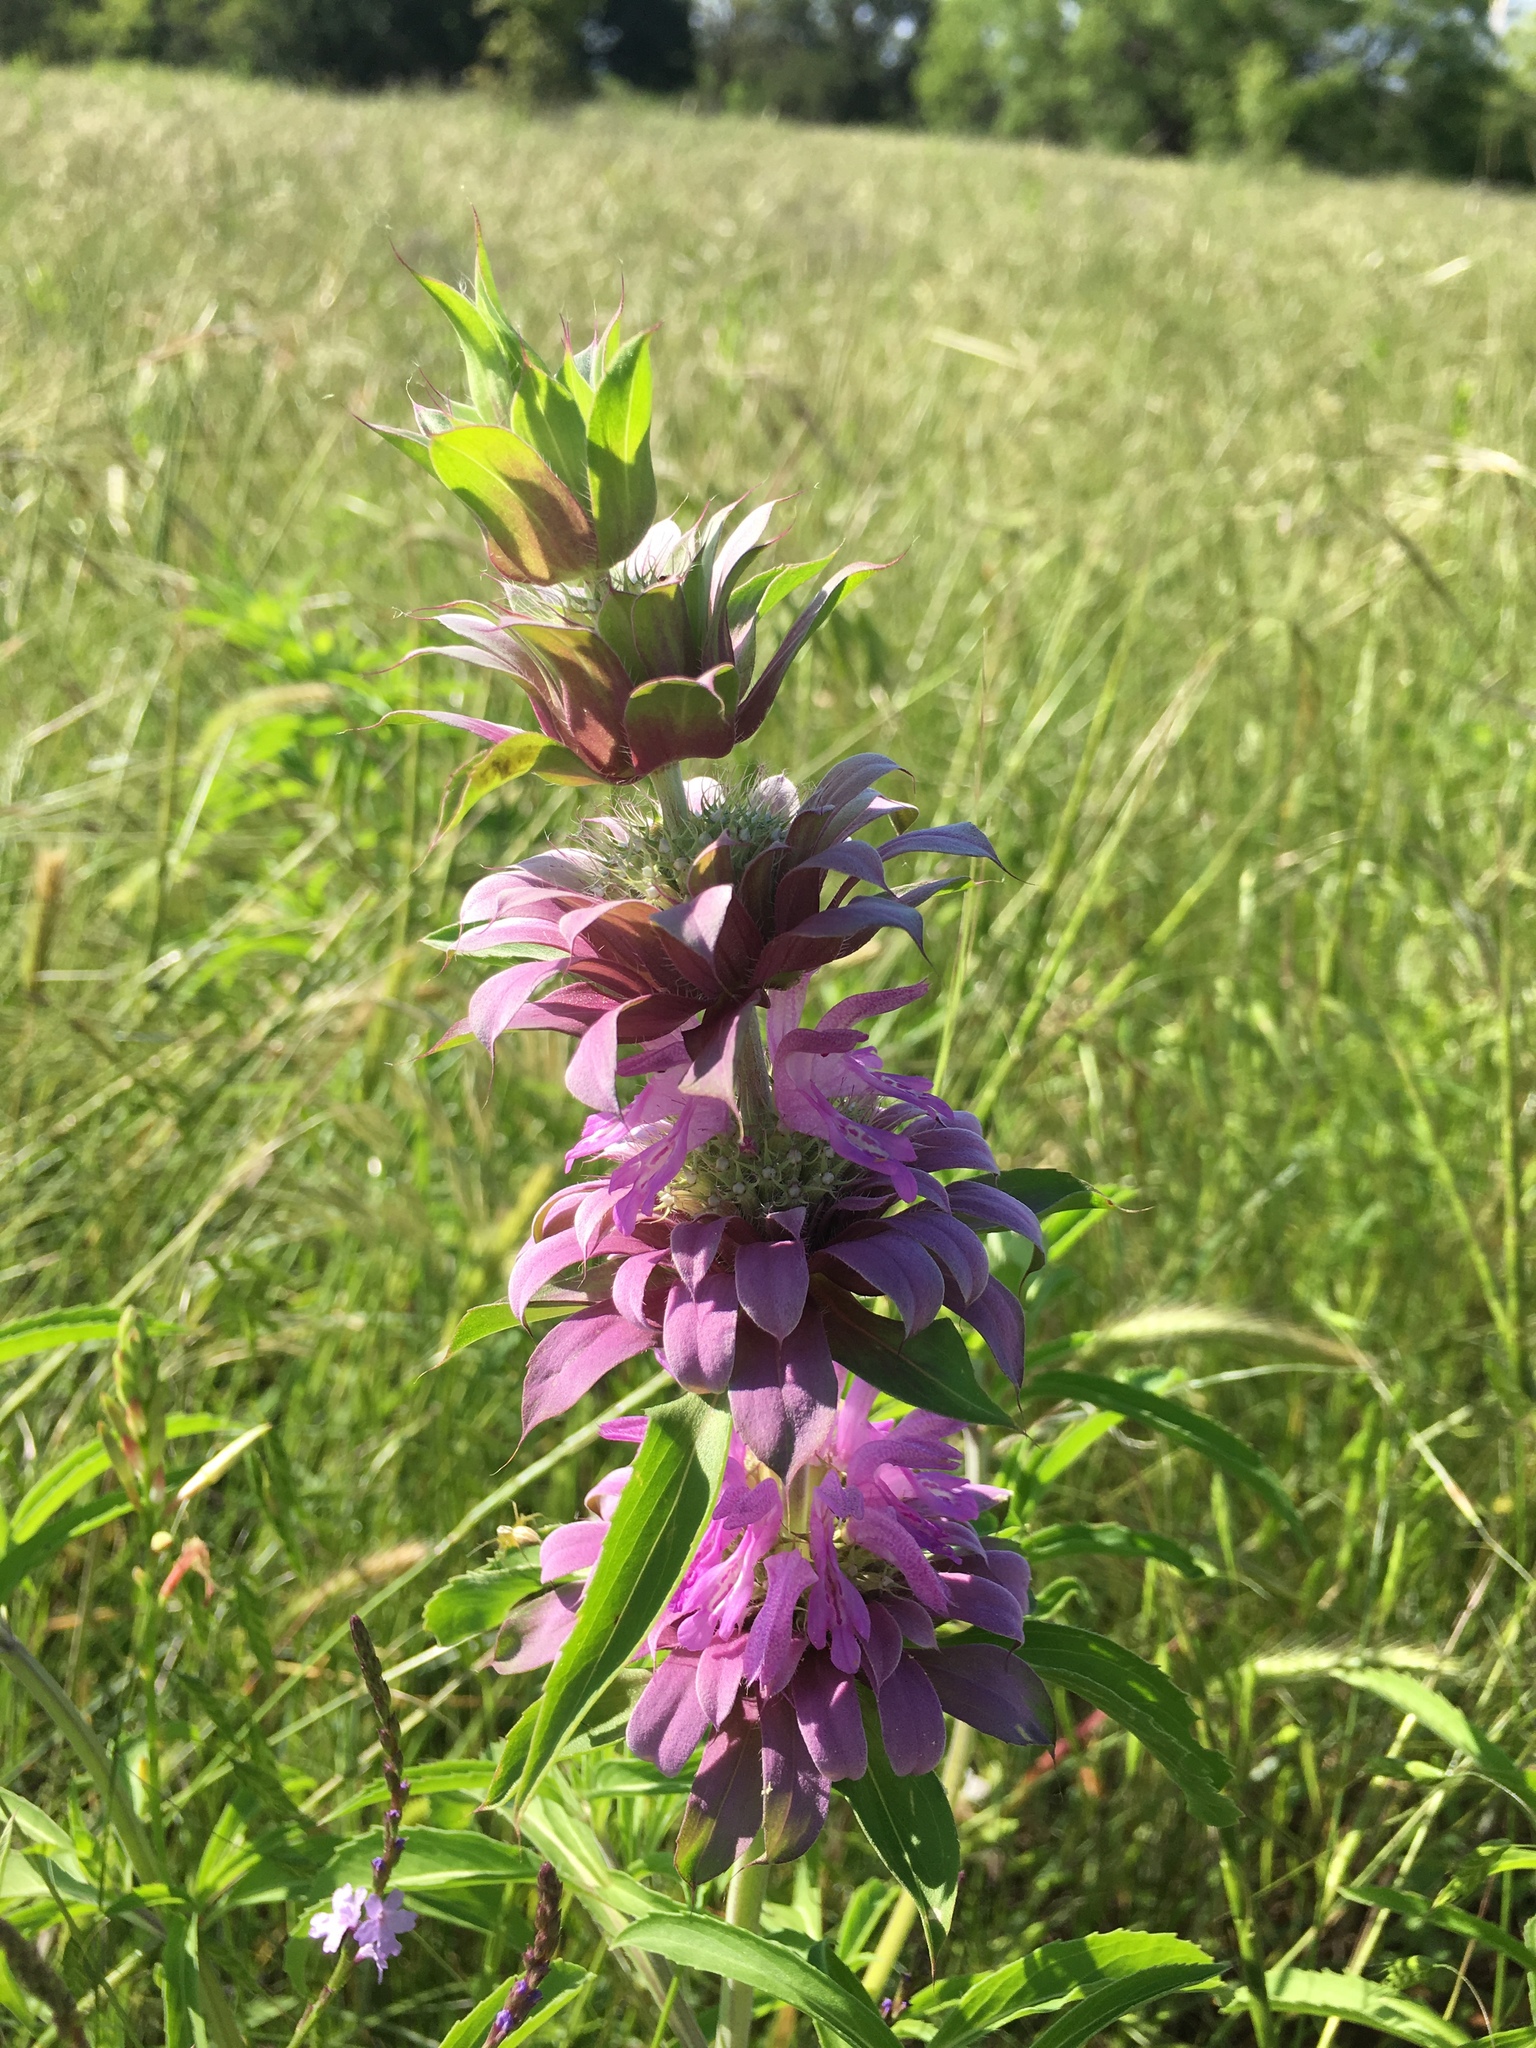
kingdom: Plantae
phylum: Tracheophyta
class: Magnoliopsida
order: Lamiales
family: Lamiaceae
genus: Monarda
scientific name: Monarda citriodora
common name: Lemon beebalm
